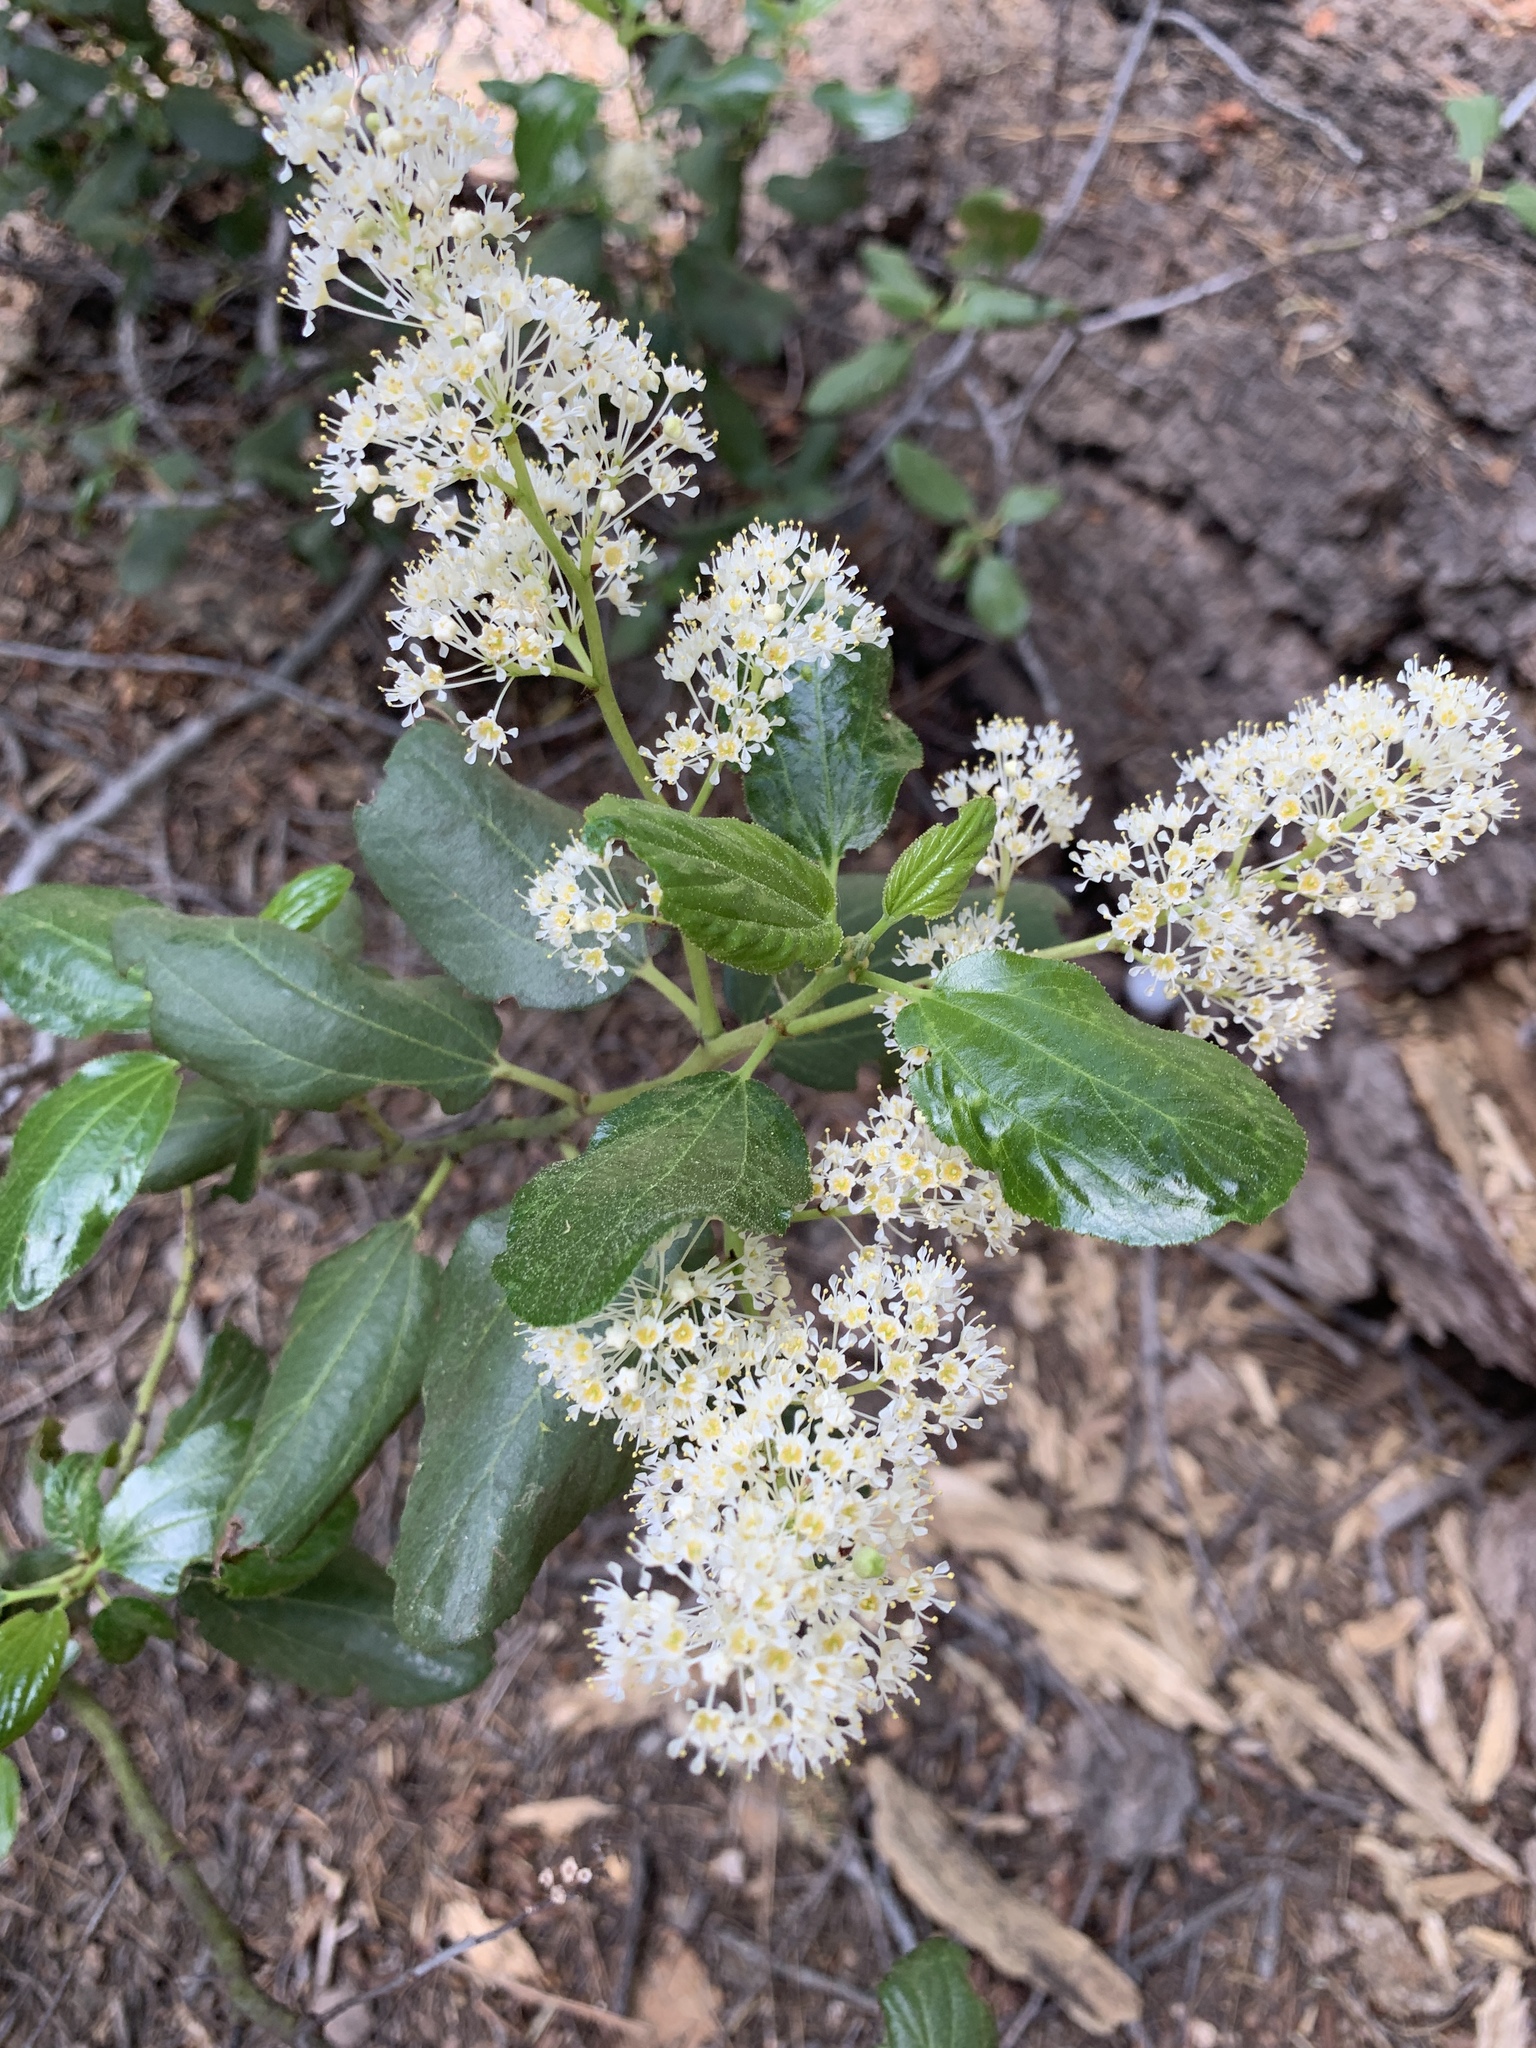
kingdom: Plantae
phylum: Tracheophyta
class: Magnoliopsida
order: Rosales
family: Rhamnaceae
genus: Ceanothus
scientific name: Ceanothus velutinus
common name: Snowbrush
